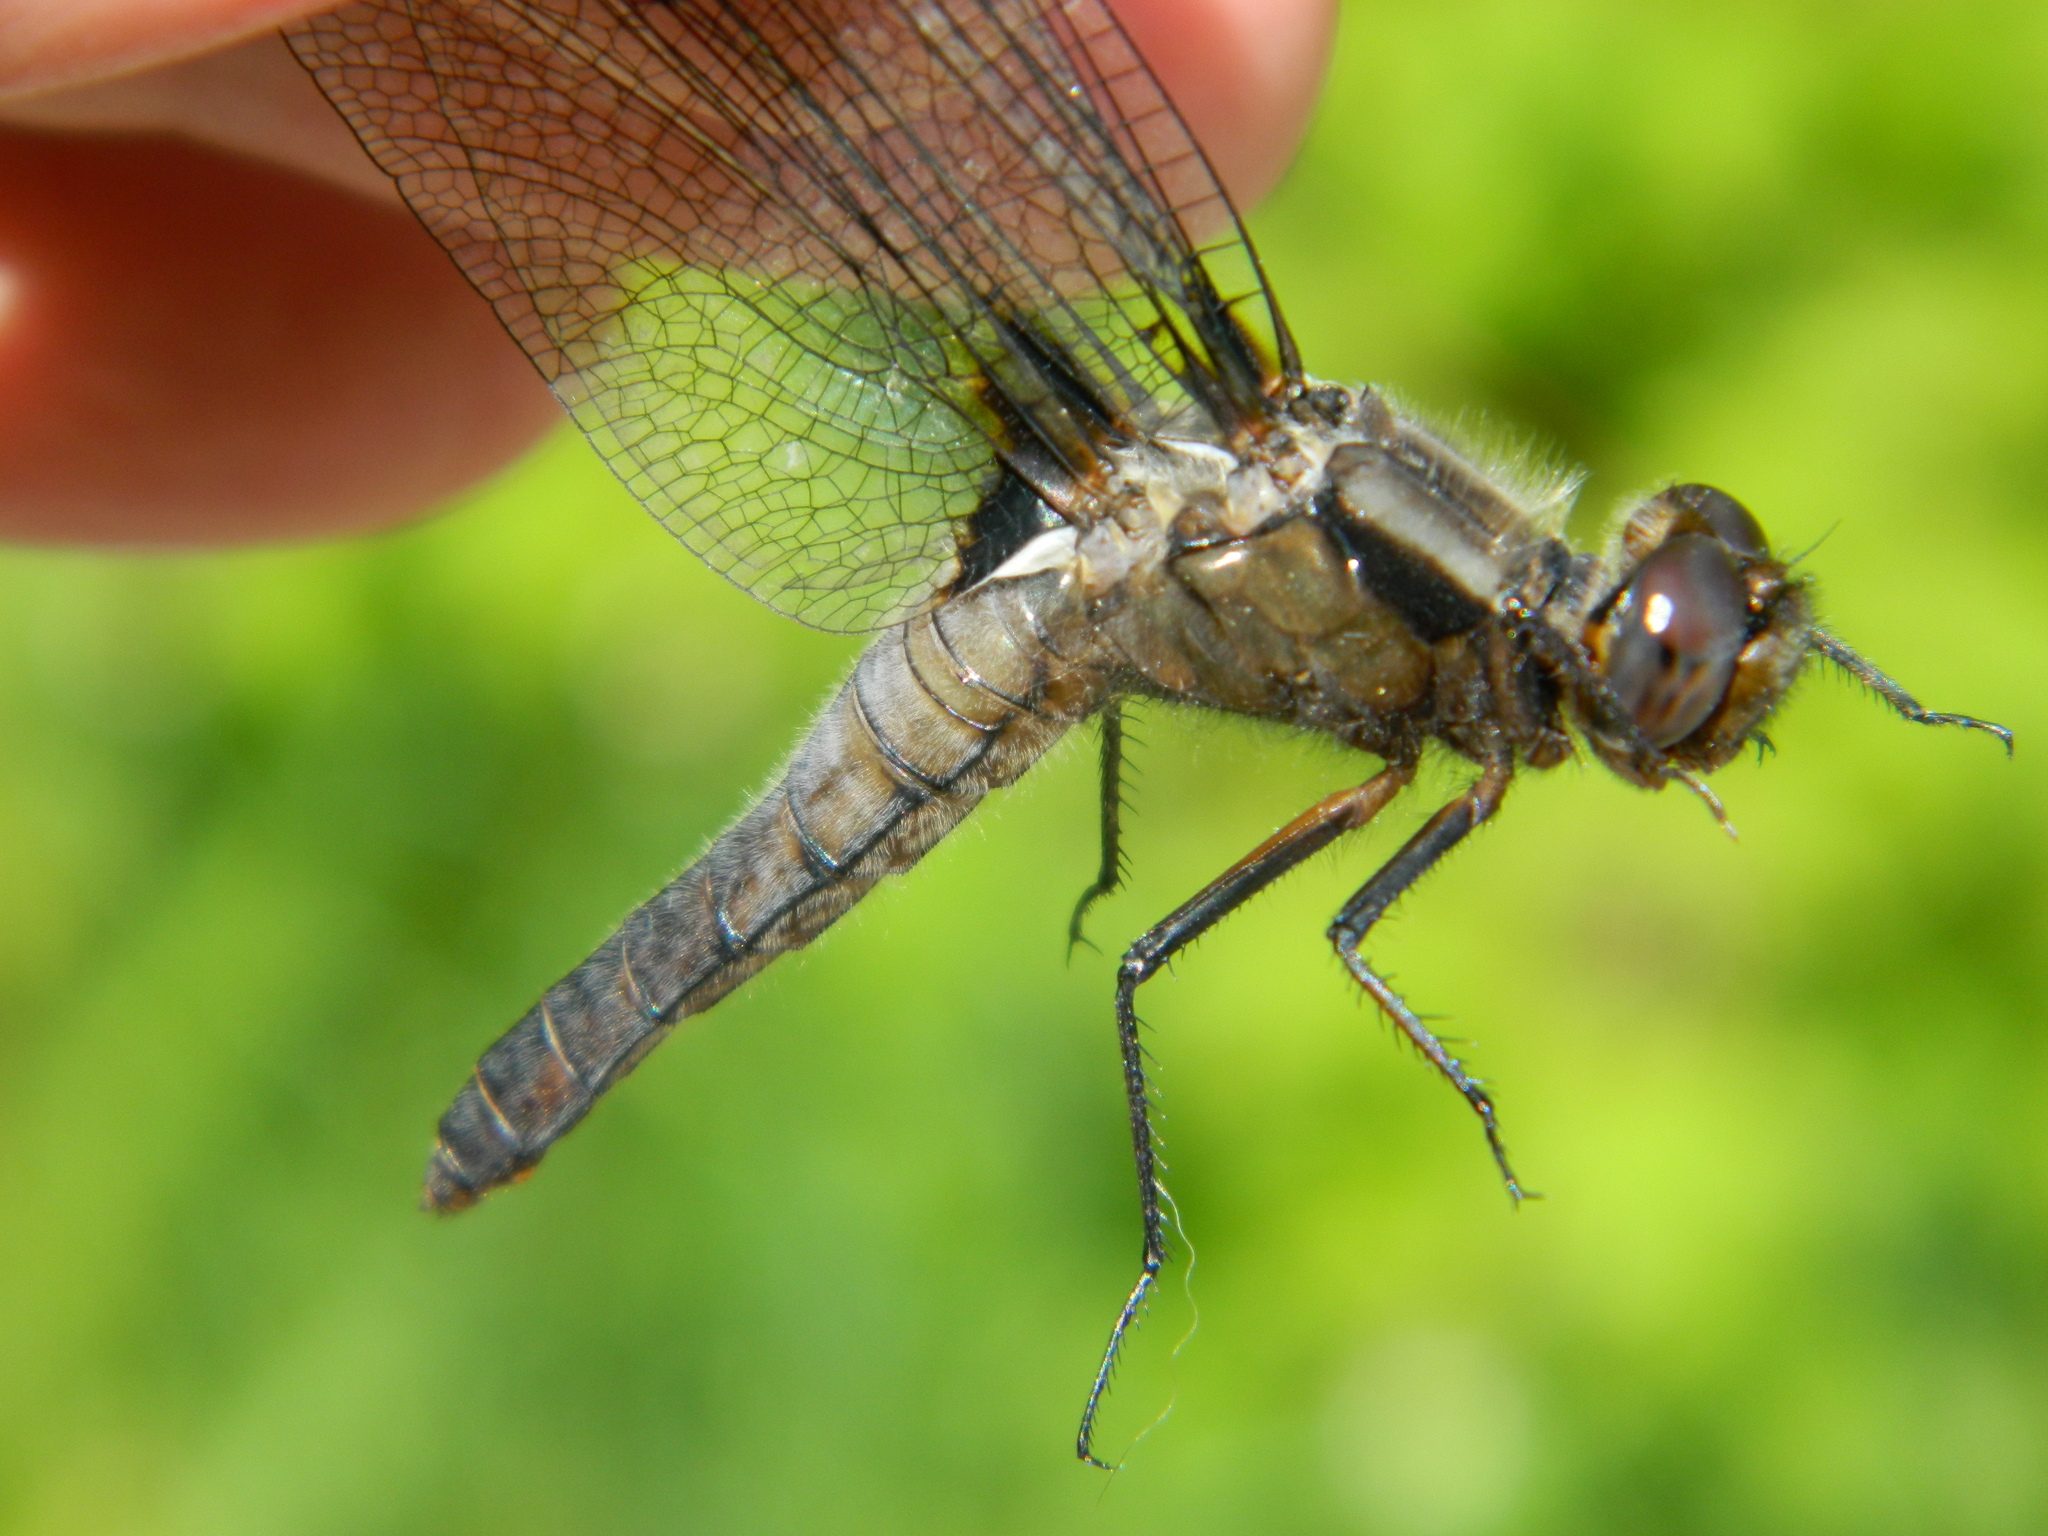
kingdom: Animalia
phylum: Arthropoda
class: Insecta
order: Odonata
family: Libellulidae
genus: Ladona
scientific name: Ladona julia
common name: Chalk-fronted corporal
